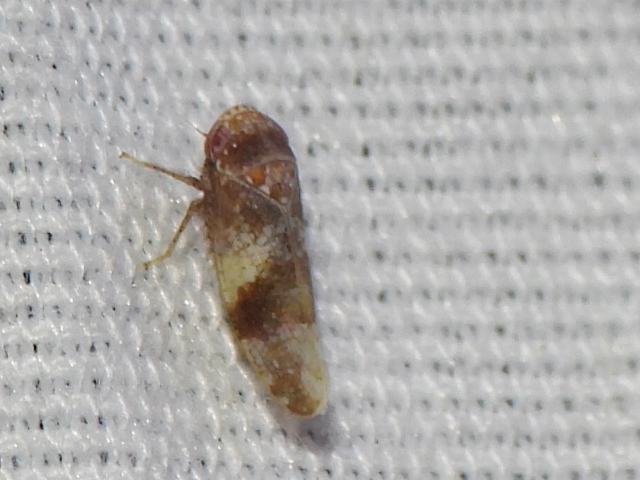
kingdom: Animalia
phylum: Arthropoda
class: Insecta
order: Hemiptera
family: Cicadellidae
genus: Norvellina
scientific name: Norvellina helenae
